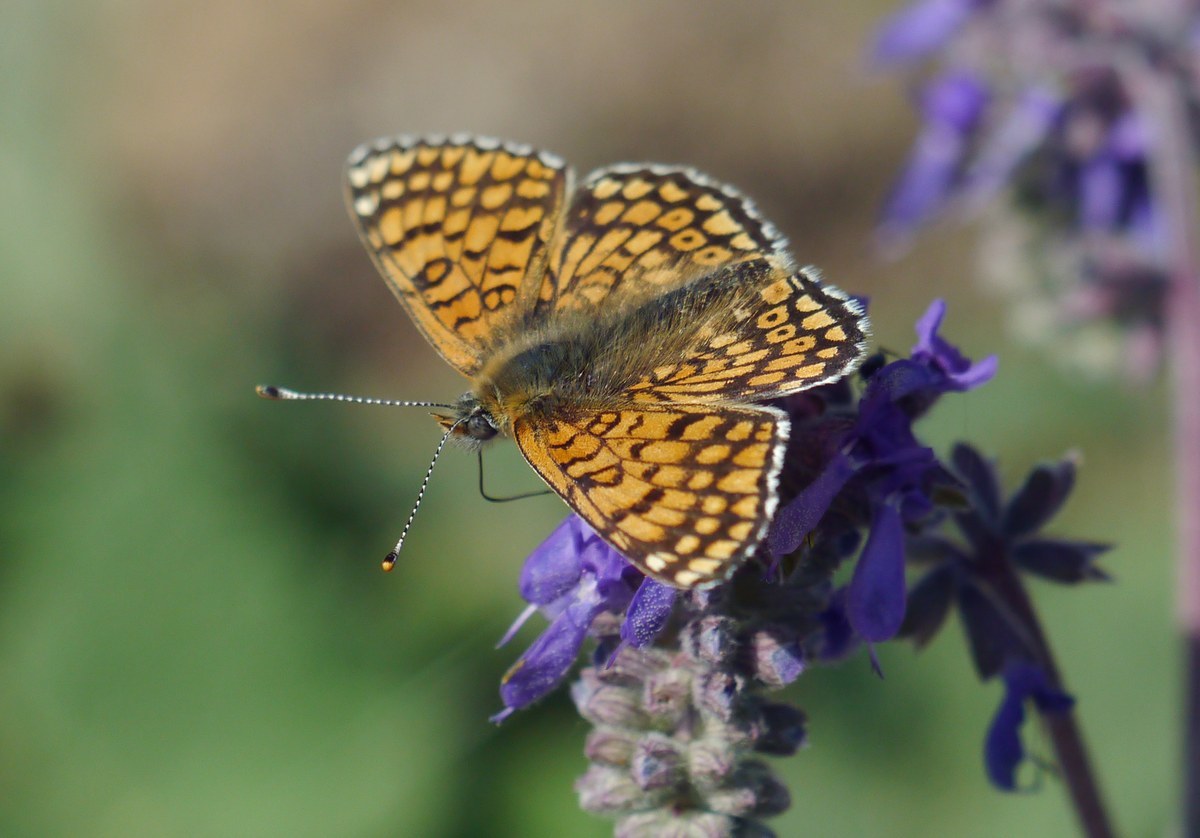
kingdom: Animalia
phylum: Arthropoda
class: Insecta
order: Lepidoptera
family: Nymphalidae
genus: Melitaea
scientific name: Melitaea cinxia
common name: Glanville fritillary
